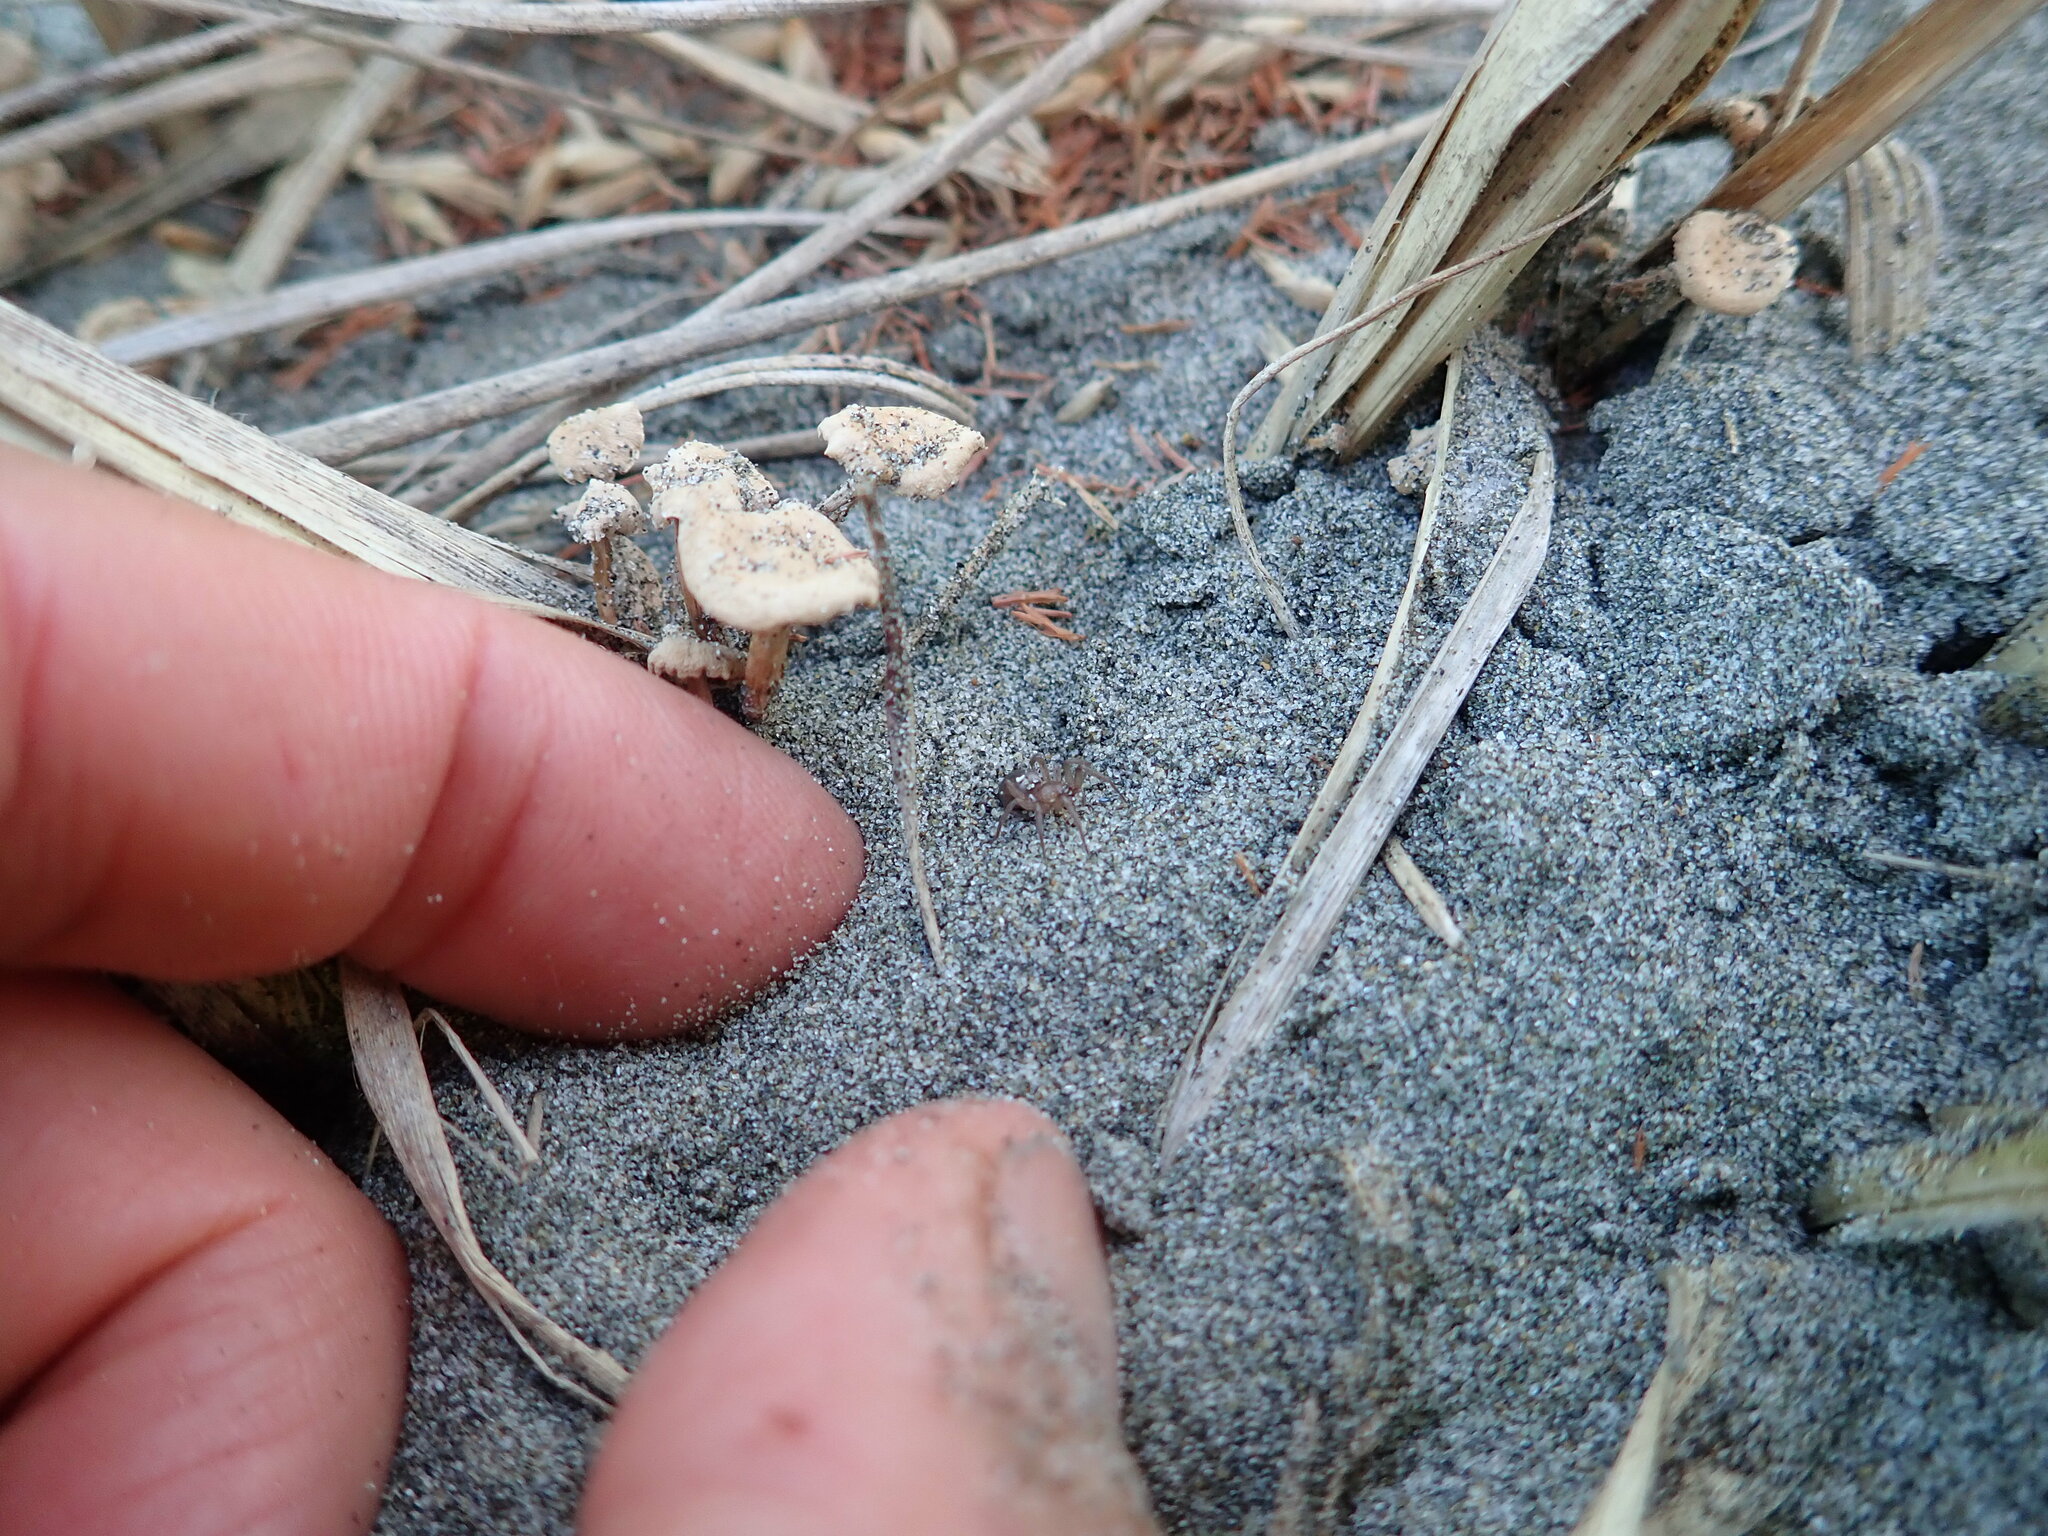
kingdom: Fungi
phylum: Basidiomycota
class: Agaricomycetes
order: Agaricales
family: Marasmiaceae
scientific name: Marasmiaceae
